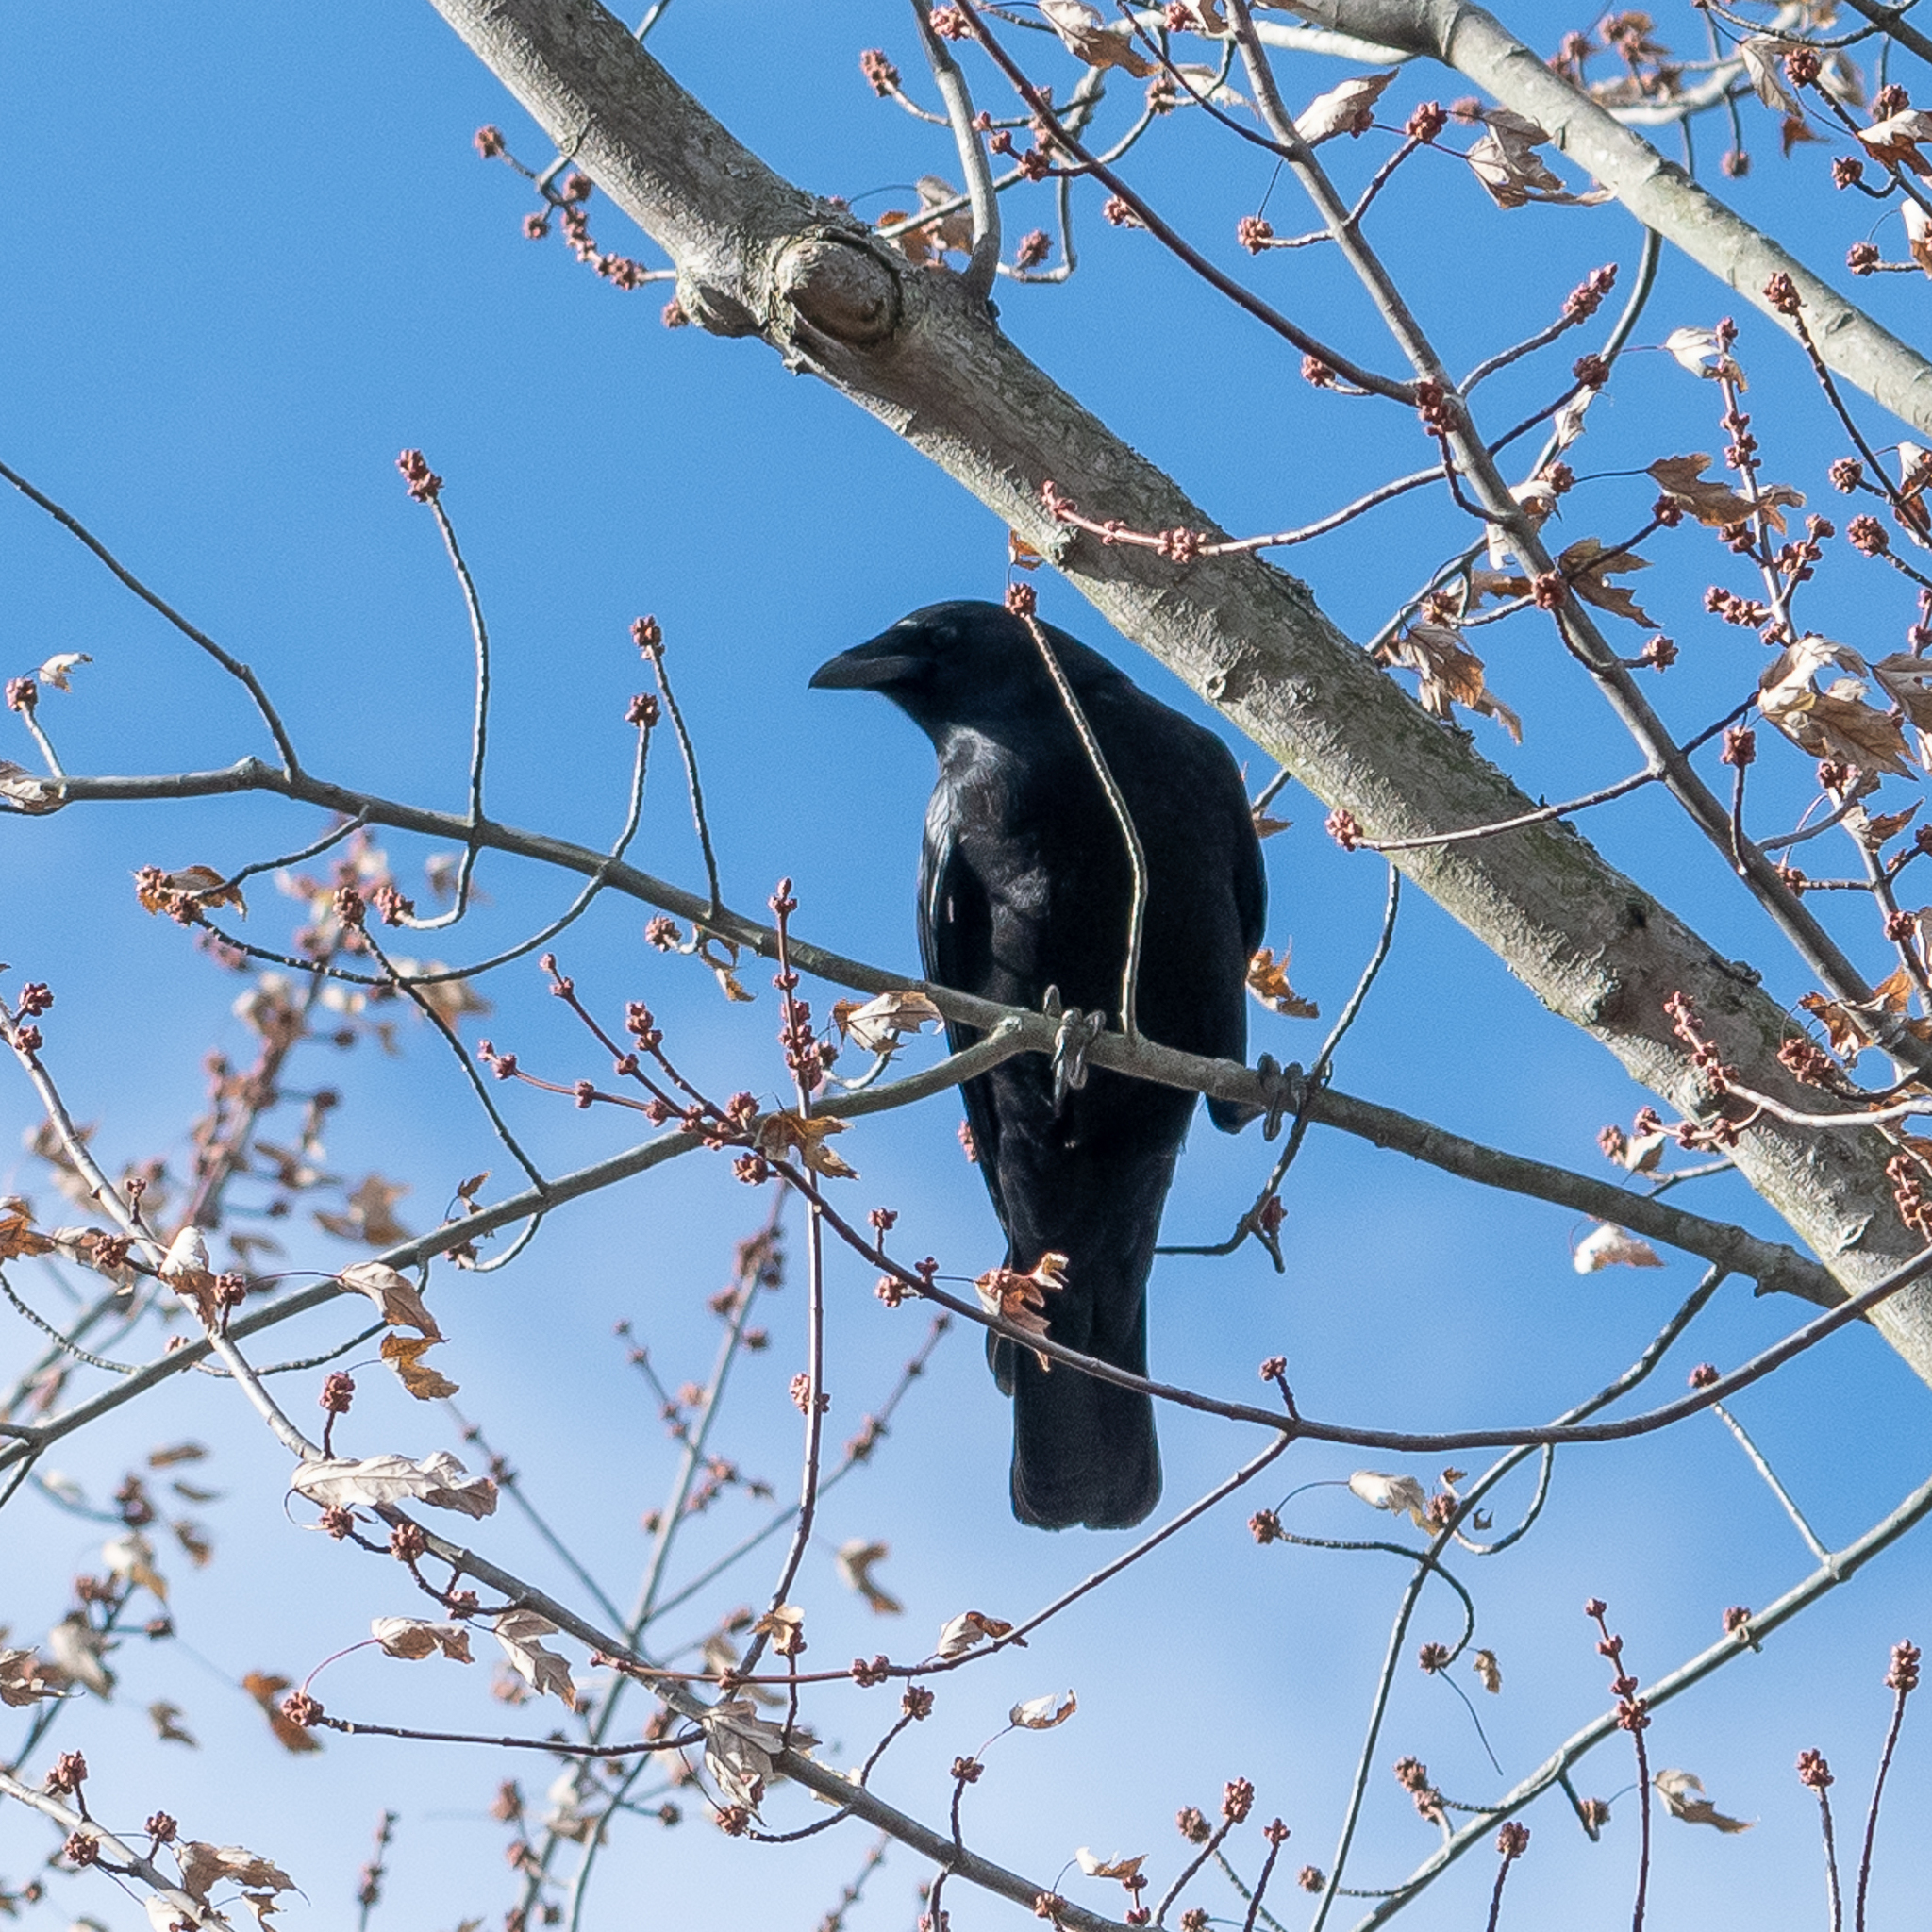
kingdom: Animalia
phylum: Chordata
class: Aves
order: Passeriformes
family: Corvidae
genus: Corvus
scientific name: Corvus brachyrhynchos
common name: American crow
